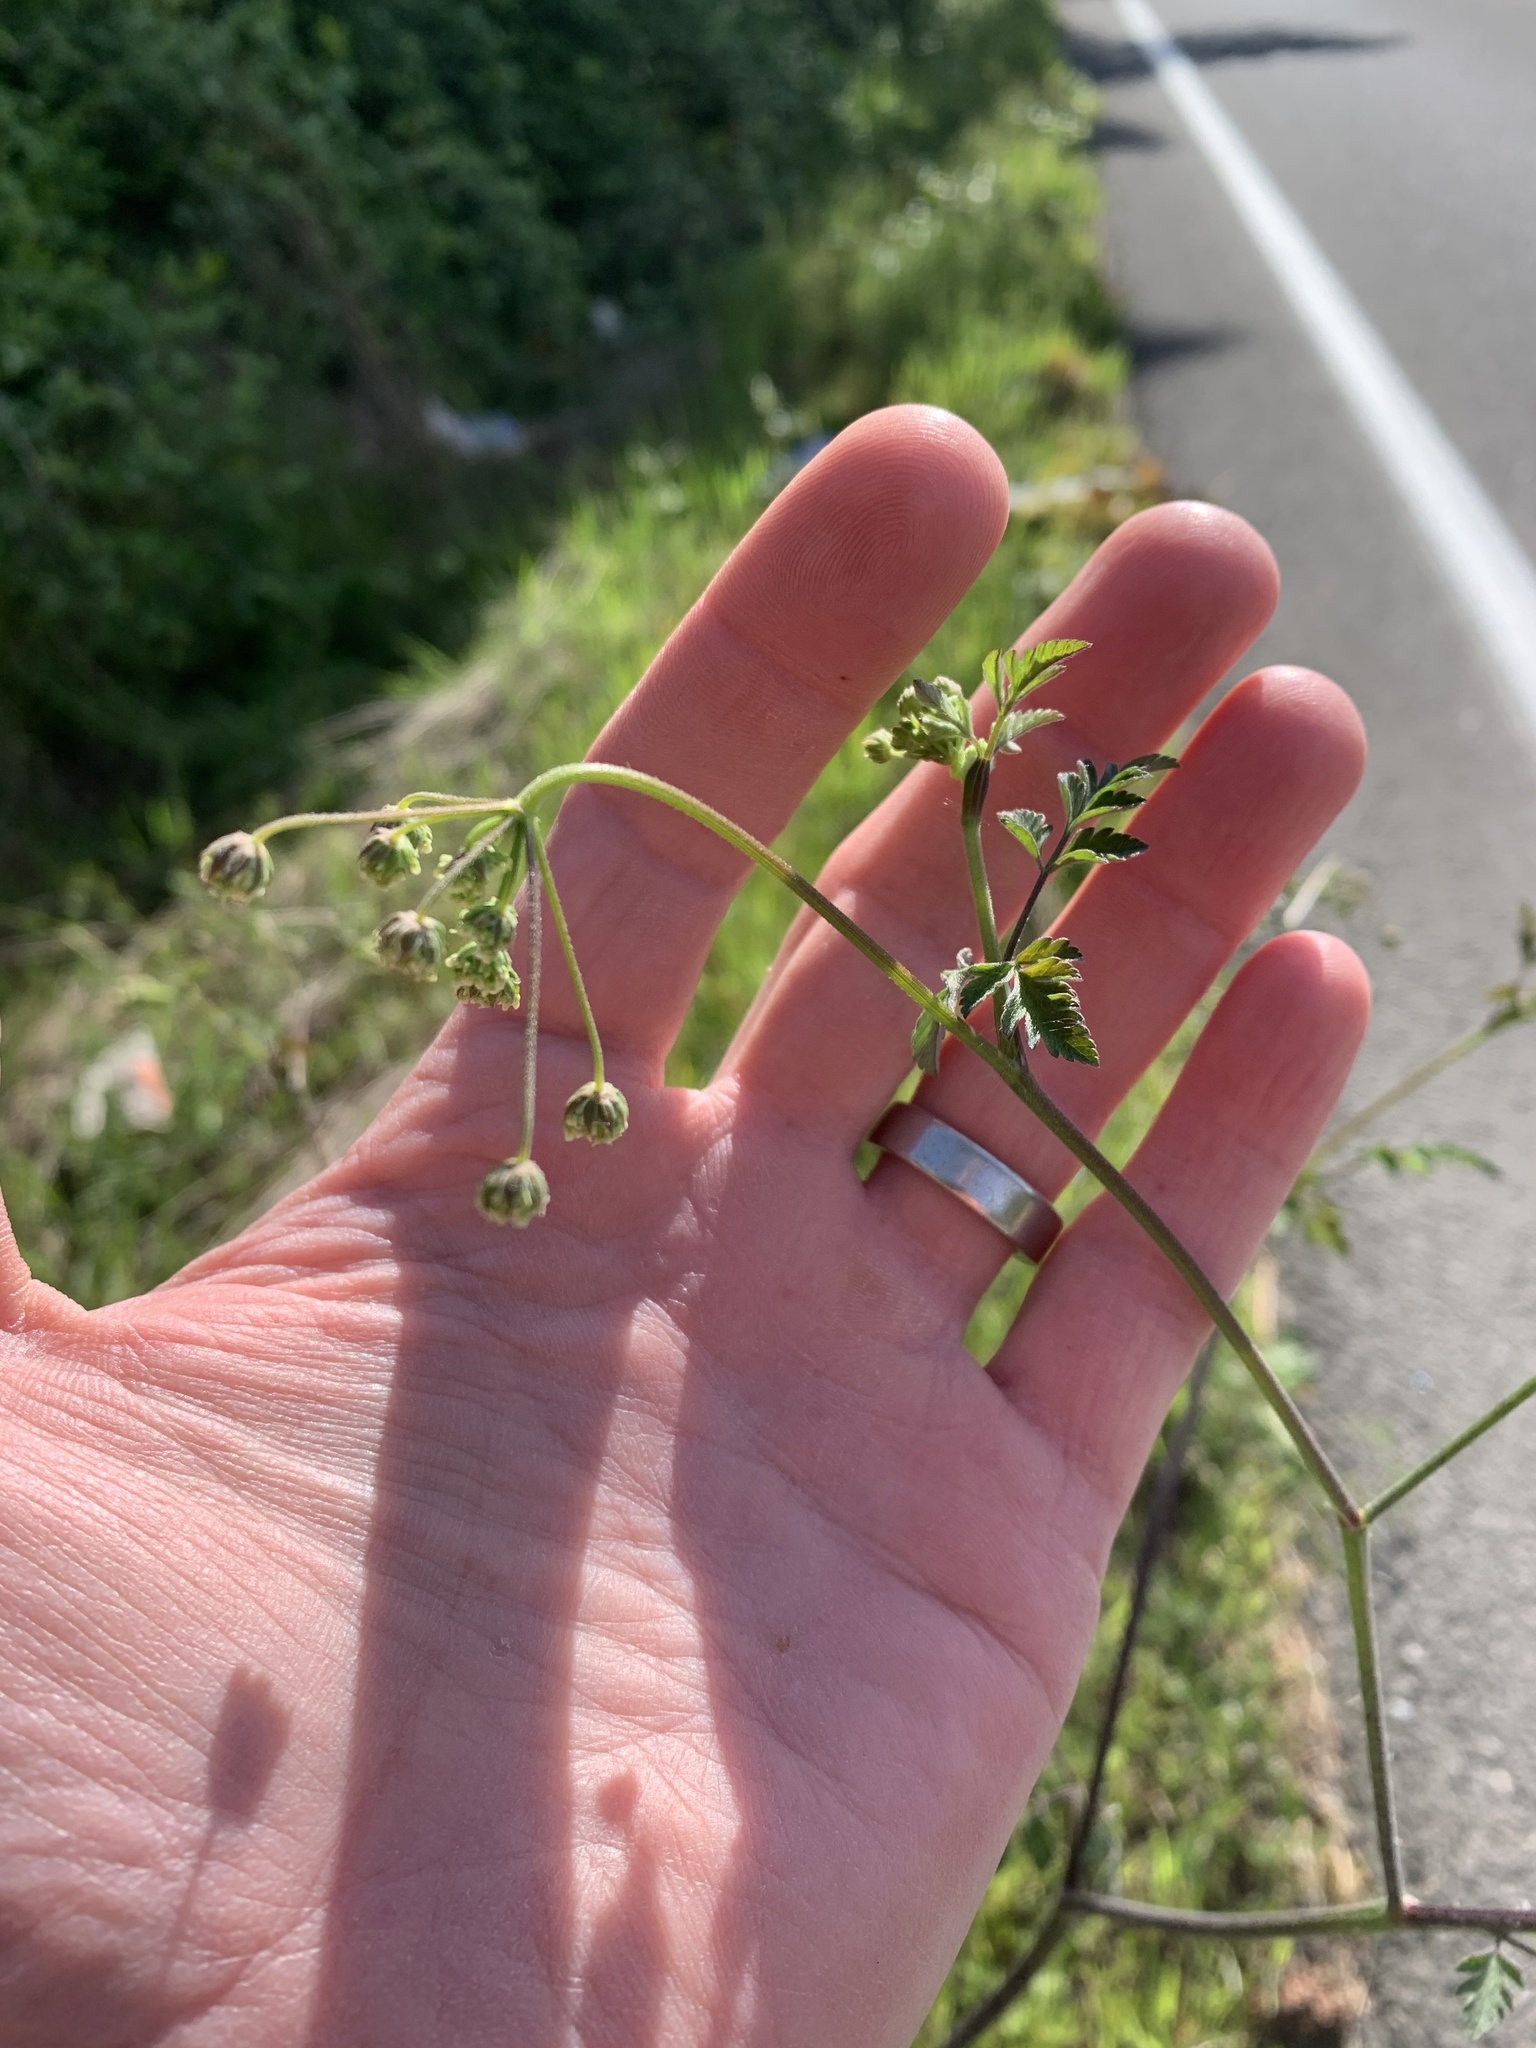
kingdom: Plantae
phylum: Tracheophyta
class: Magnoliopsida
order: Apiales
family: Apiaceae
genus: Chaerophyllum
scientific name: Chaerophyllum temulum
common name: Rough chervil
